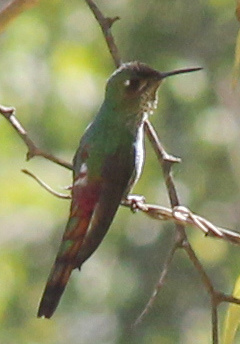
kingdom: Animalia
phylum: Chordata
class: Aves
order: Apodiformes
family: Trochilidae
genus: Sappho
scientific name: Sappho sparganurus
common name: Red-tailed comet
